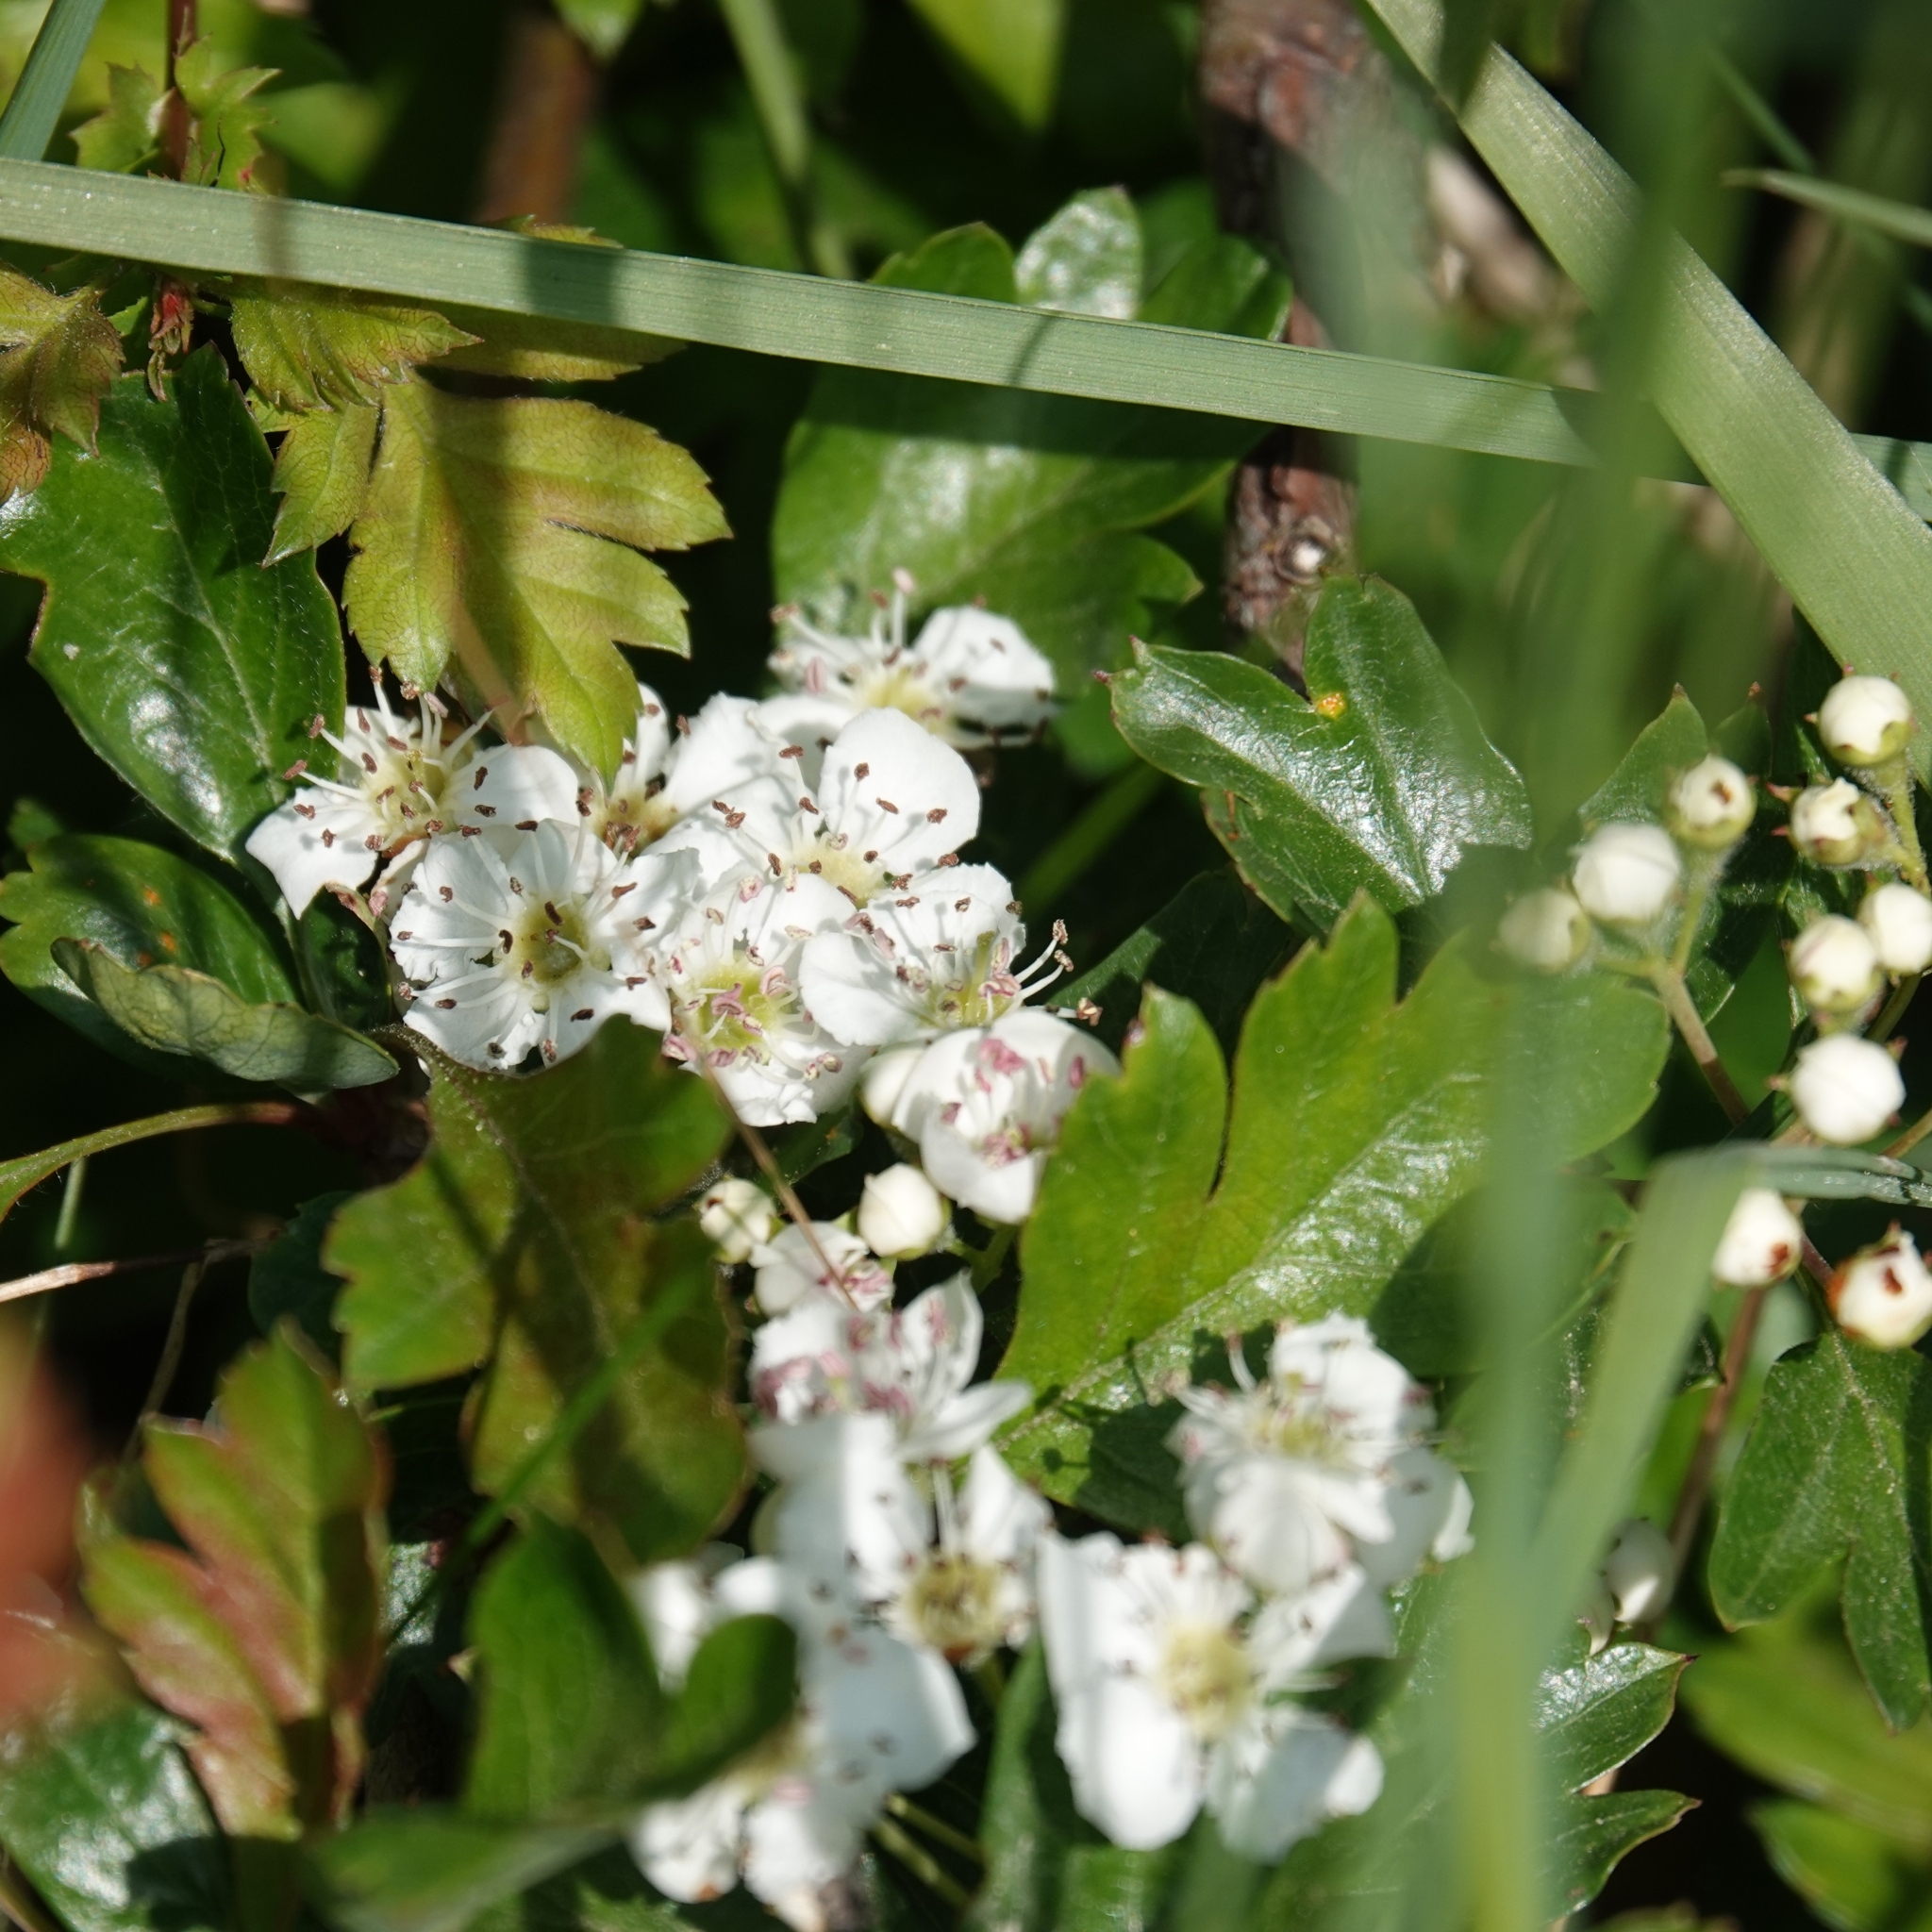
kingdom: Plantae
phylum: Tracheophyta
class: Magnoliopsida
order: Rosales
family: Rosaceae
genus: Crataegus
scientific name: Crataegus monogyna
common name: Hawthorn
